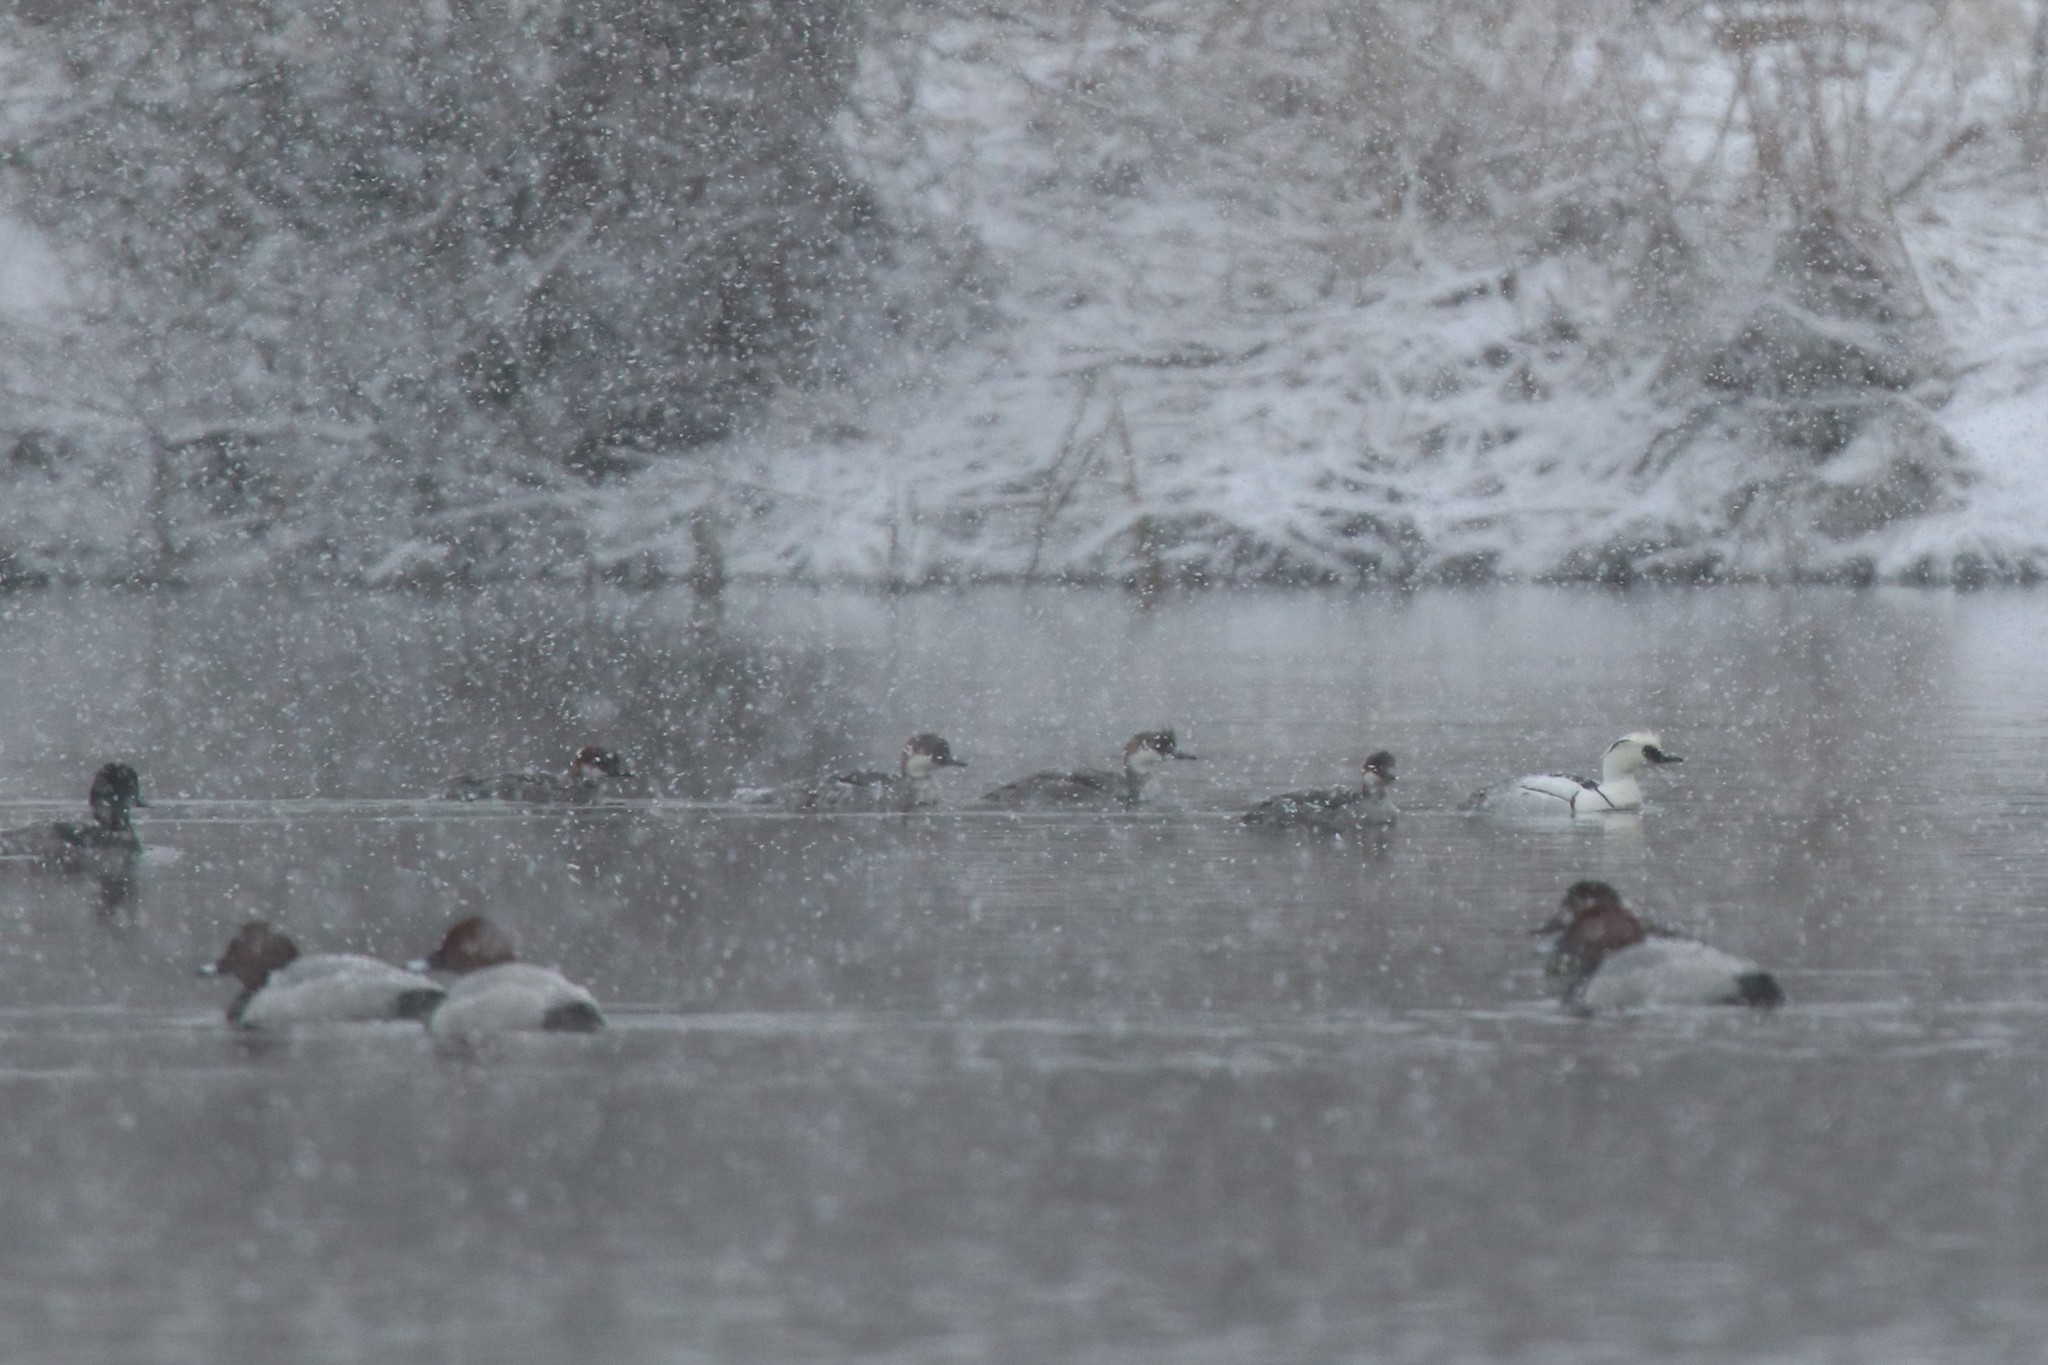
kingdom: Animalia
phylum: Chordata
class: Aves
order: Anseriformes
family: Anatidae
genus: Mergellus
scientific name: Mergellus albellus
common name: Smew
